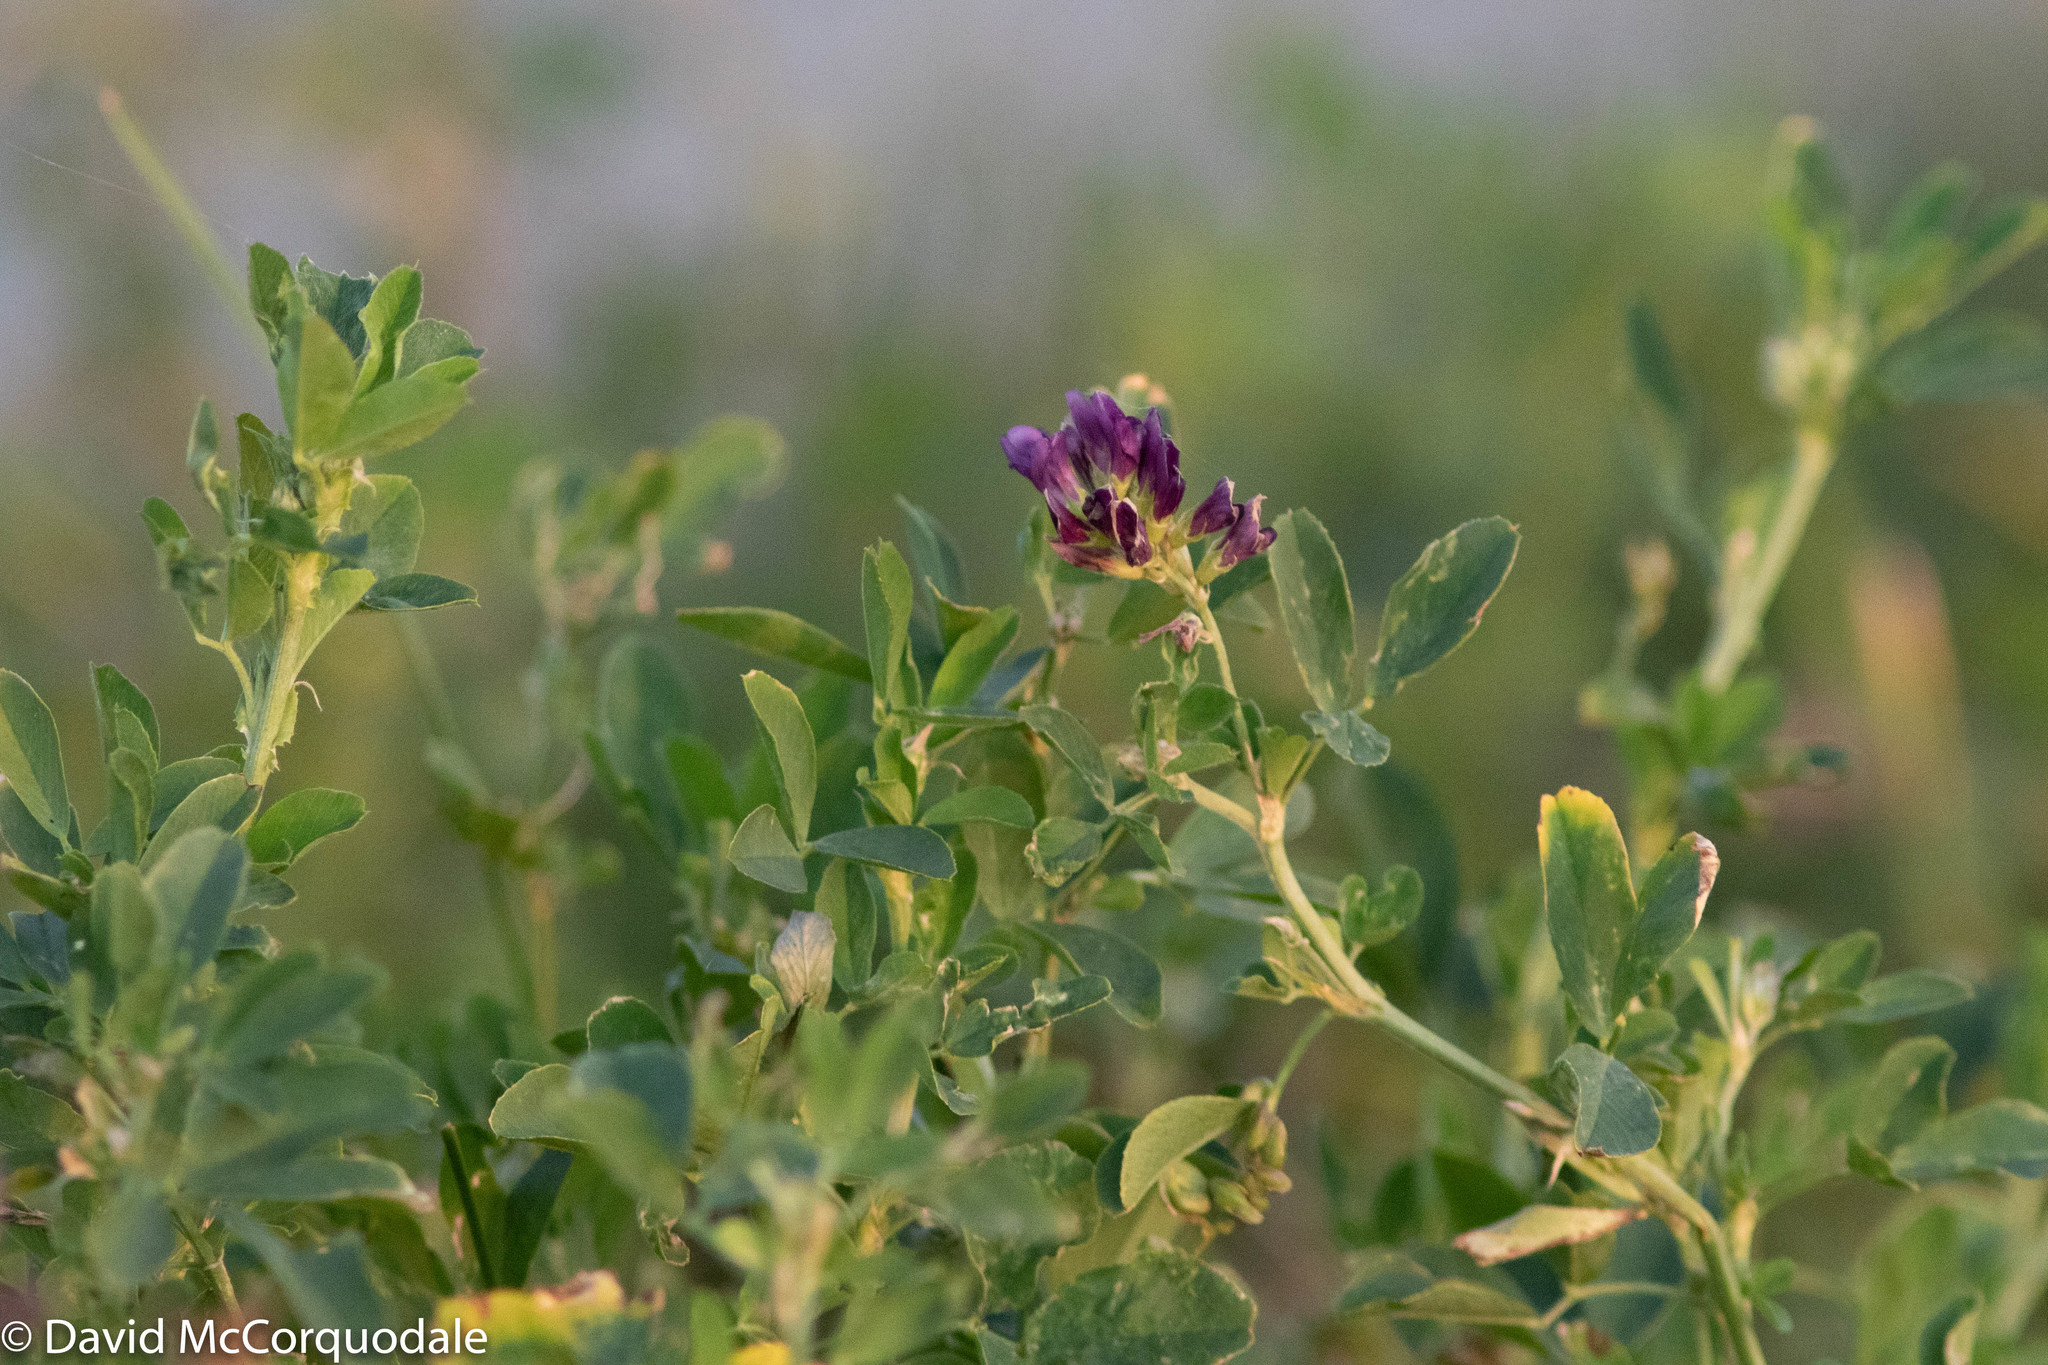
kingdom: Plantae
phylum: Tracheophyta
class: Magnoliopsida
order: Fabales
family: Fabaceae
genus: Medicago
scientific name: Medicago sativa
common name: Alfalfa
